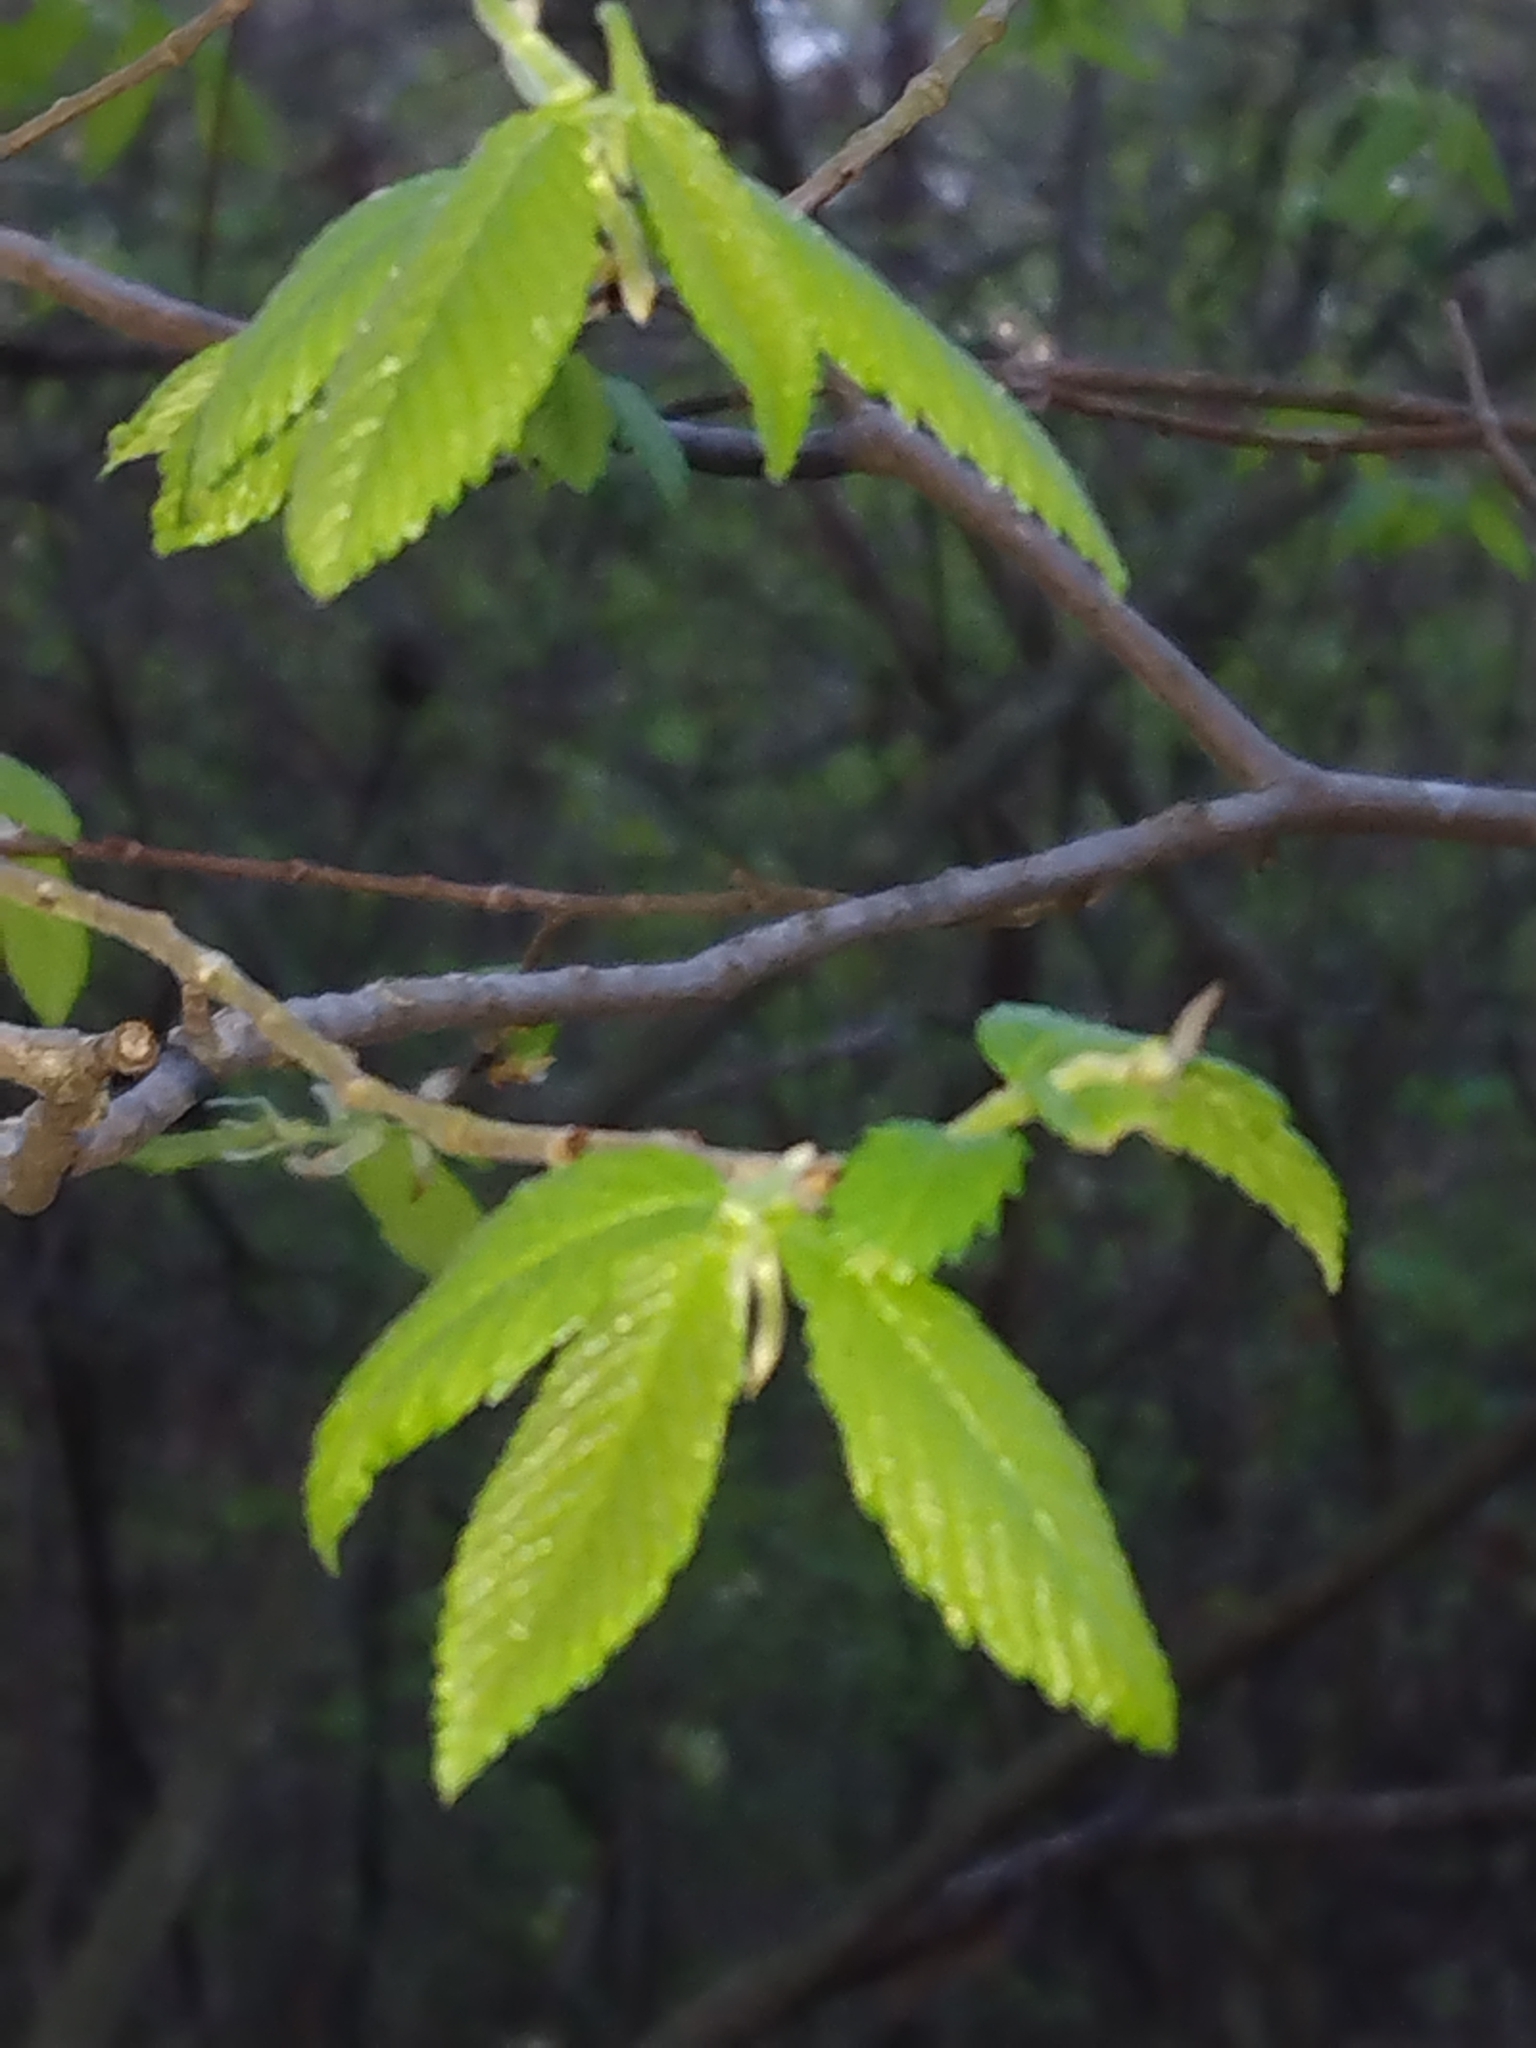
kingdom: Plantae
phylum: Tracheophyta
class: Magnoliopsida
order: Rosales
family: Ulmaceae
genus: Ulmus
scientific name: Ulmus alata
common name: Winged elm
